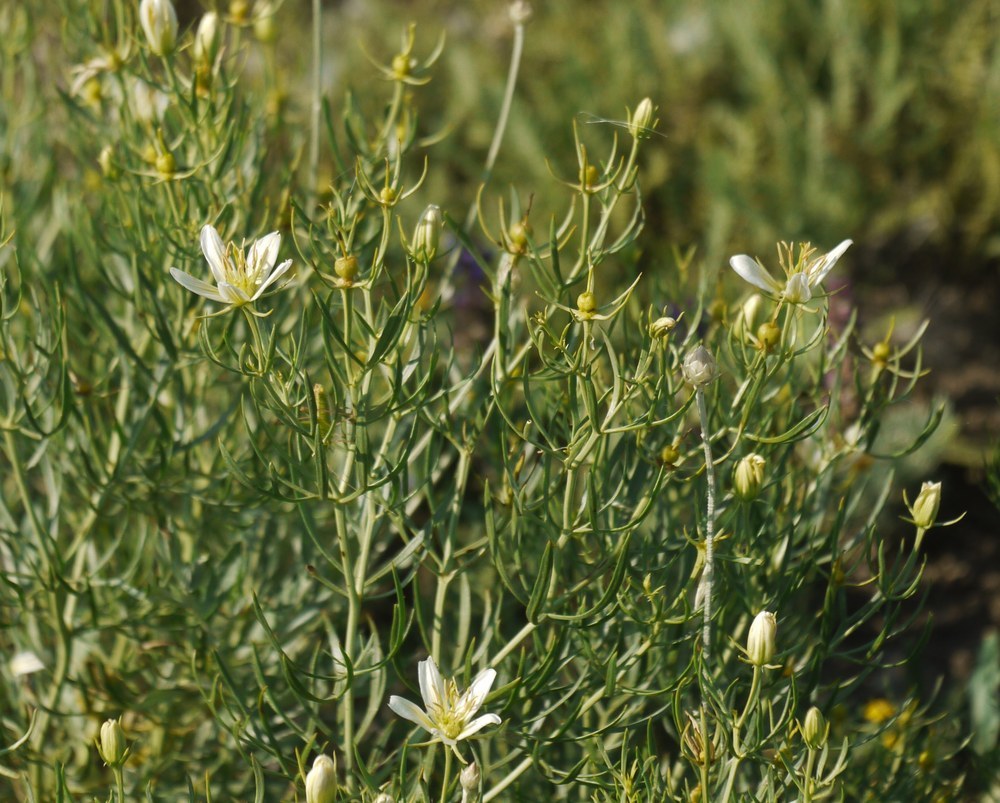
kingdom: Plantae
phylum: Tracheophyta
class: Magnoliopsida
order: Sapindales
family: Tetradiclidaceae
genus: Peganum
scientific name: Peganum harmala
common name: Harmal peganum
